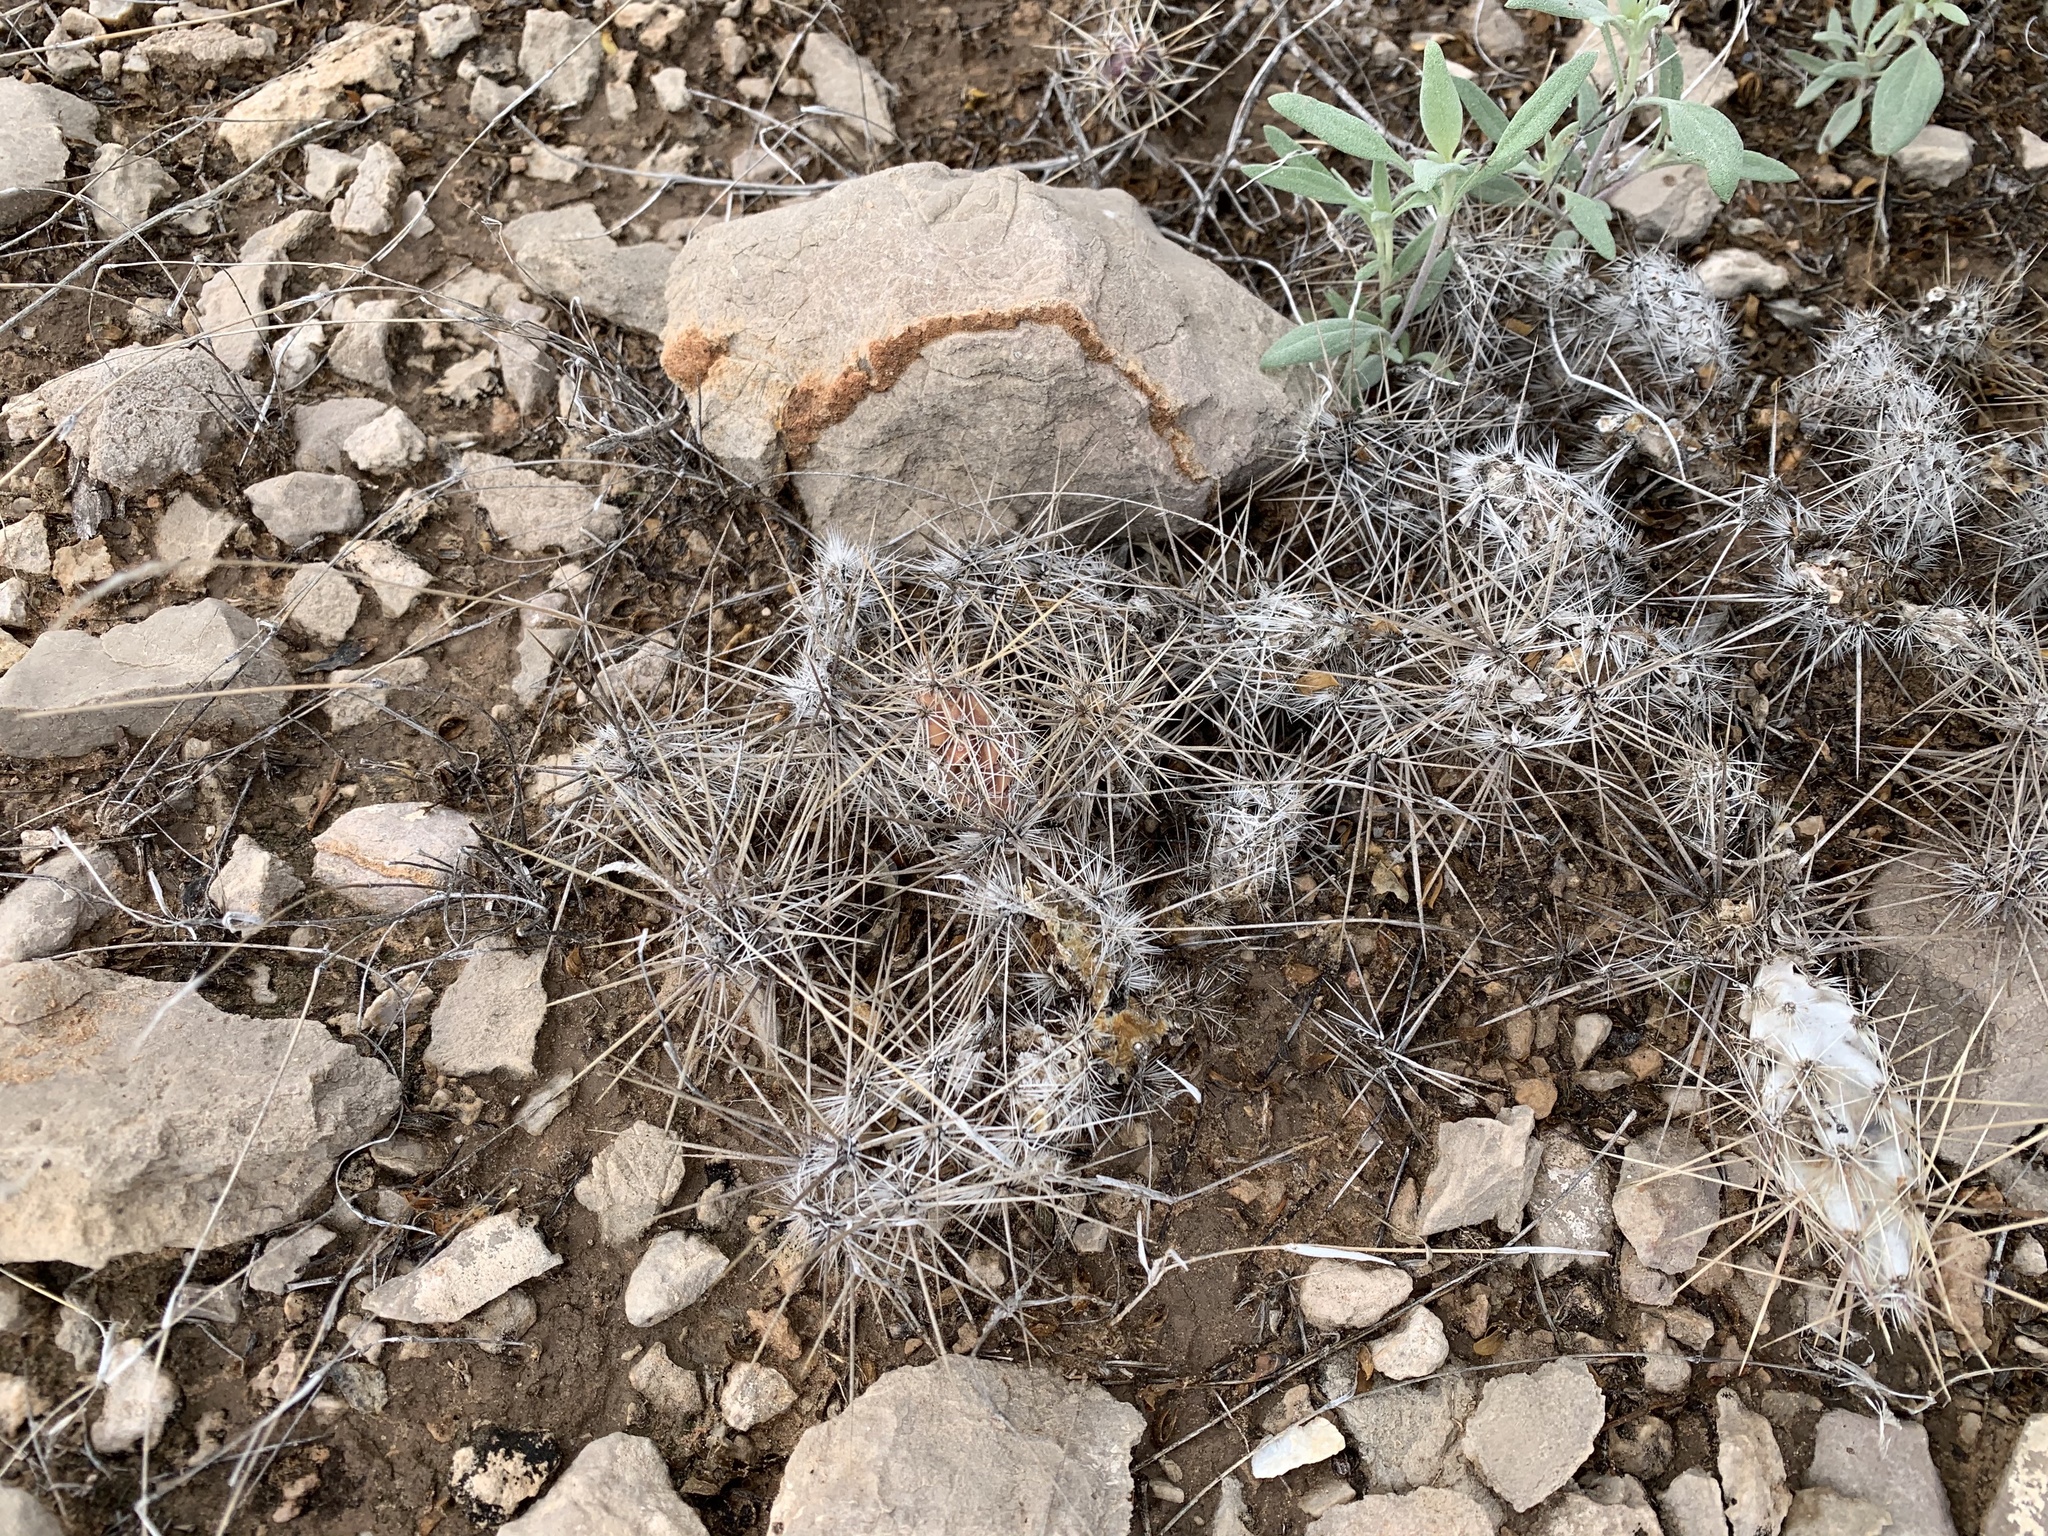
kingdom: Plantae
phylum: Tracheophyta
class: Magnoliopsida
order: Caryophyllales
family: Cactaceae
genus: Coryphantha
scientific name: Coryphantha macromeris
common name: Nipple beehive cactus
